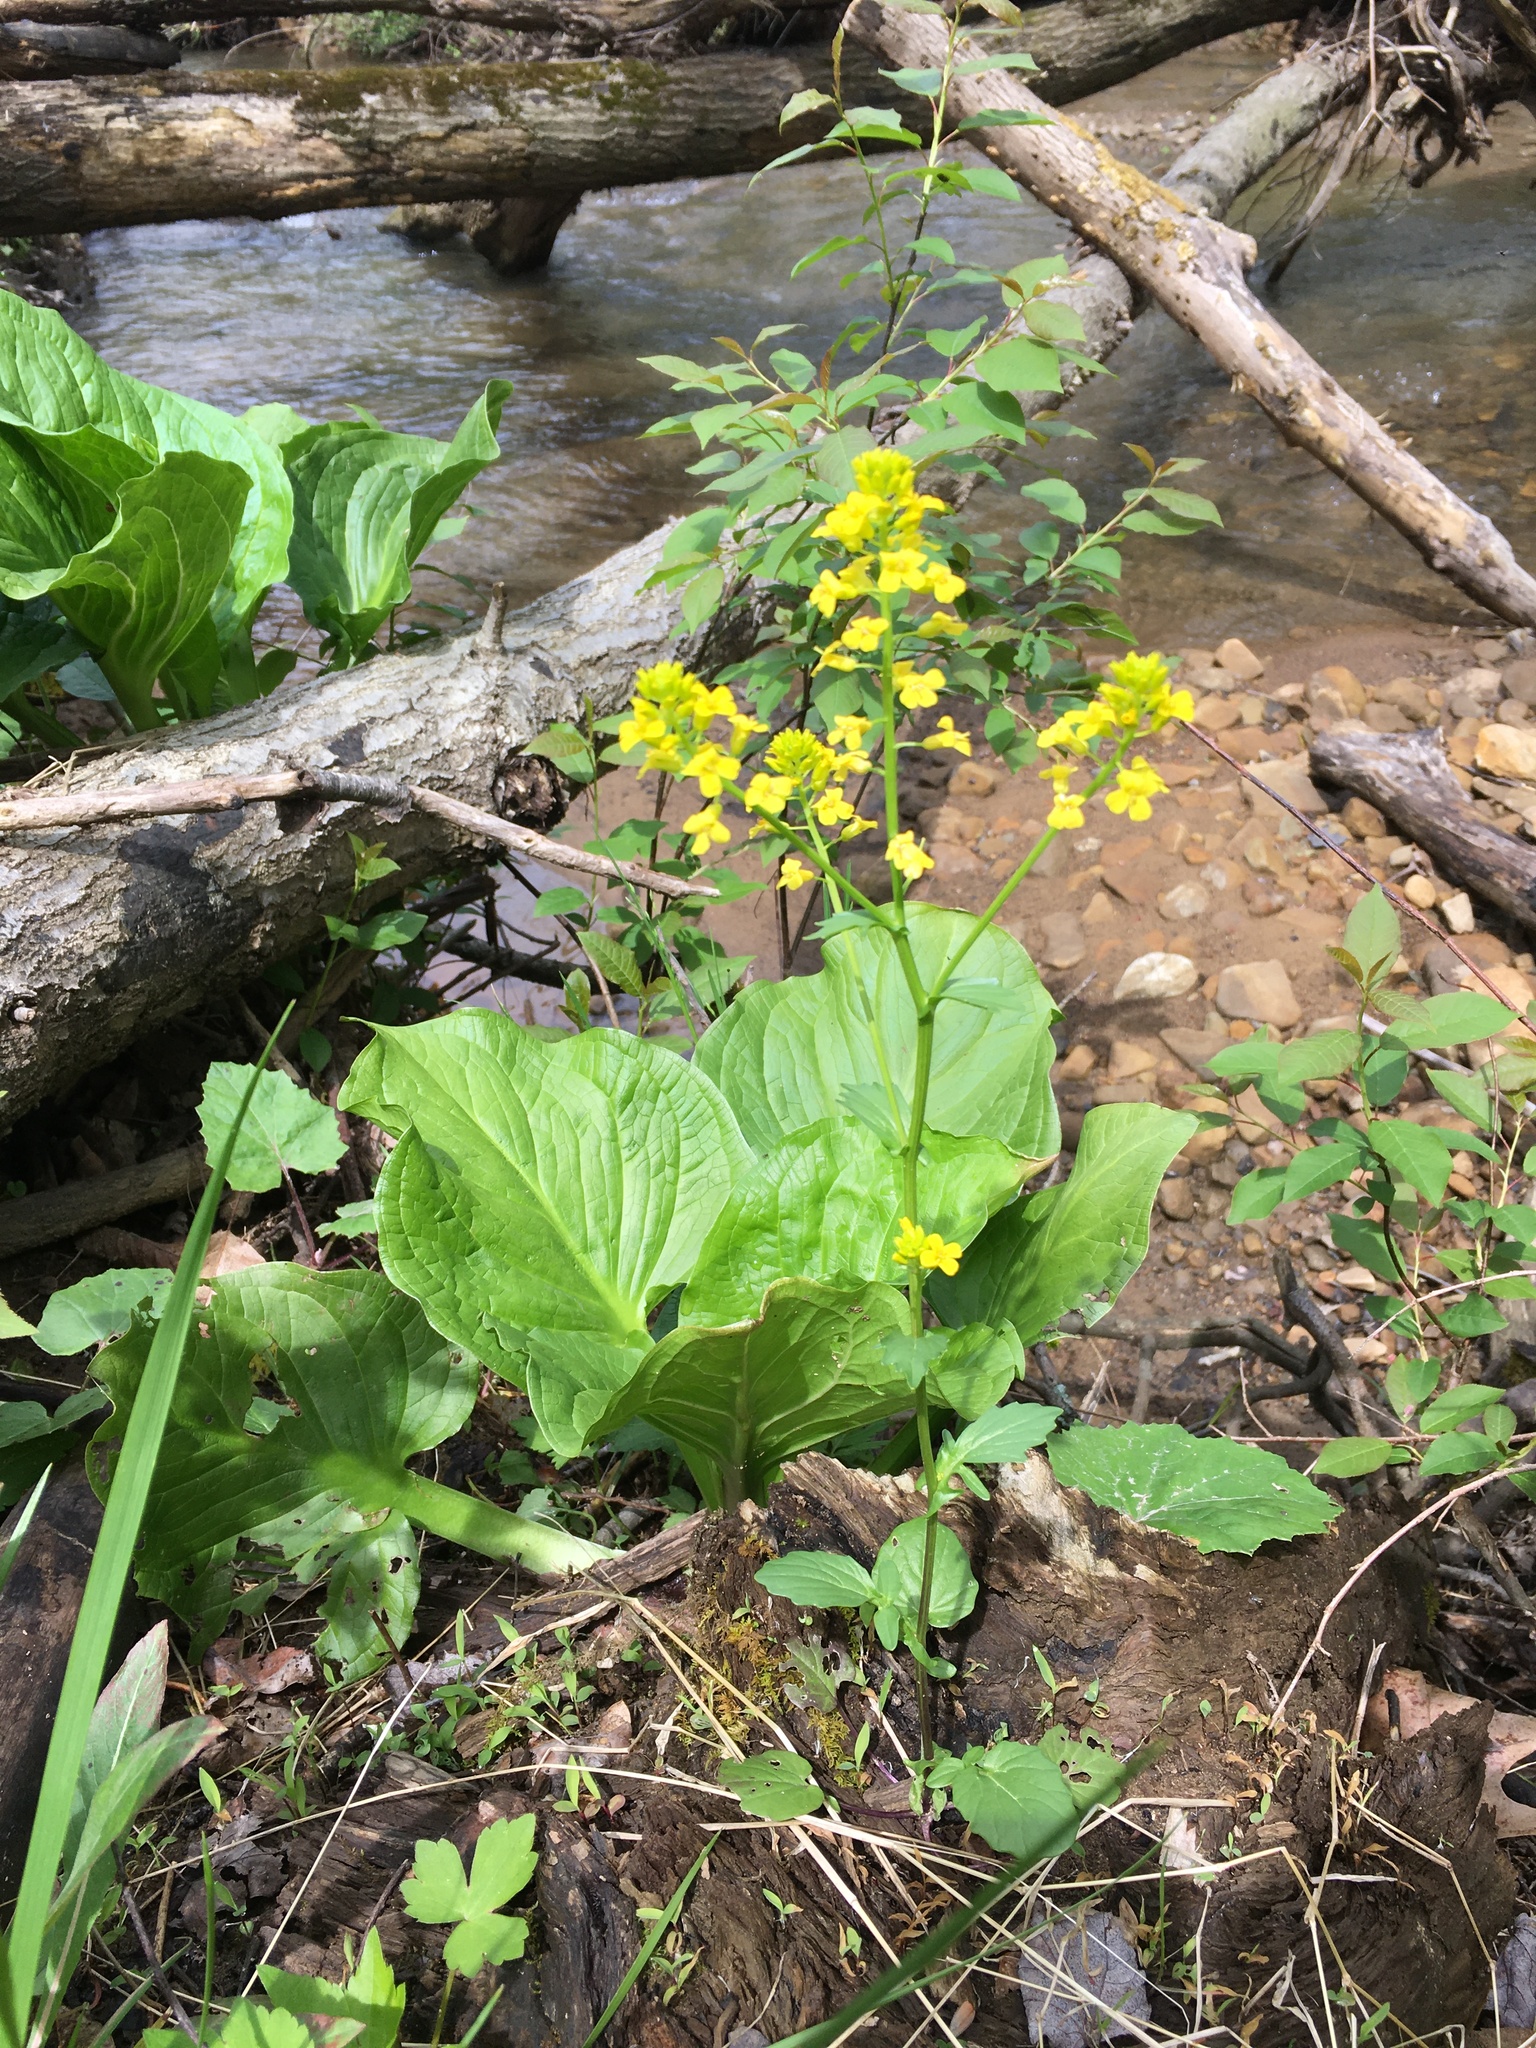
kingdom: Plantae
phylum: Tracheophyta
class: Magnoliopsida
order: Brassicales
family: Brassicaceae
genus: Barbarea
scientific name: Barbarea vulgaris
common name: Cressy-greens
